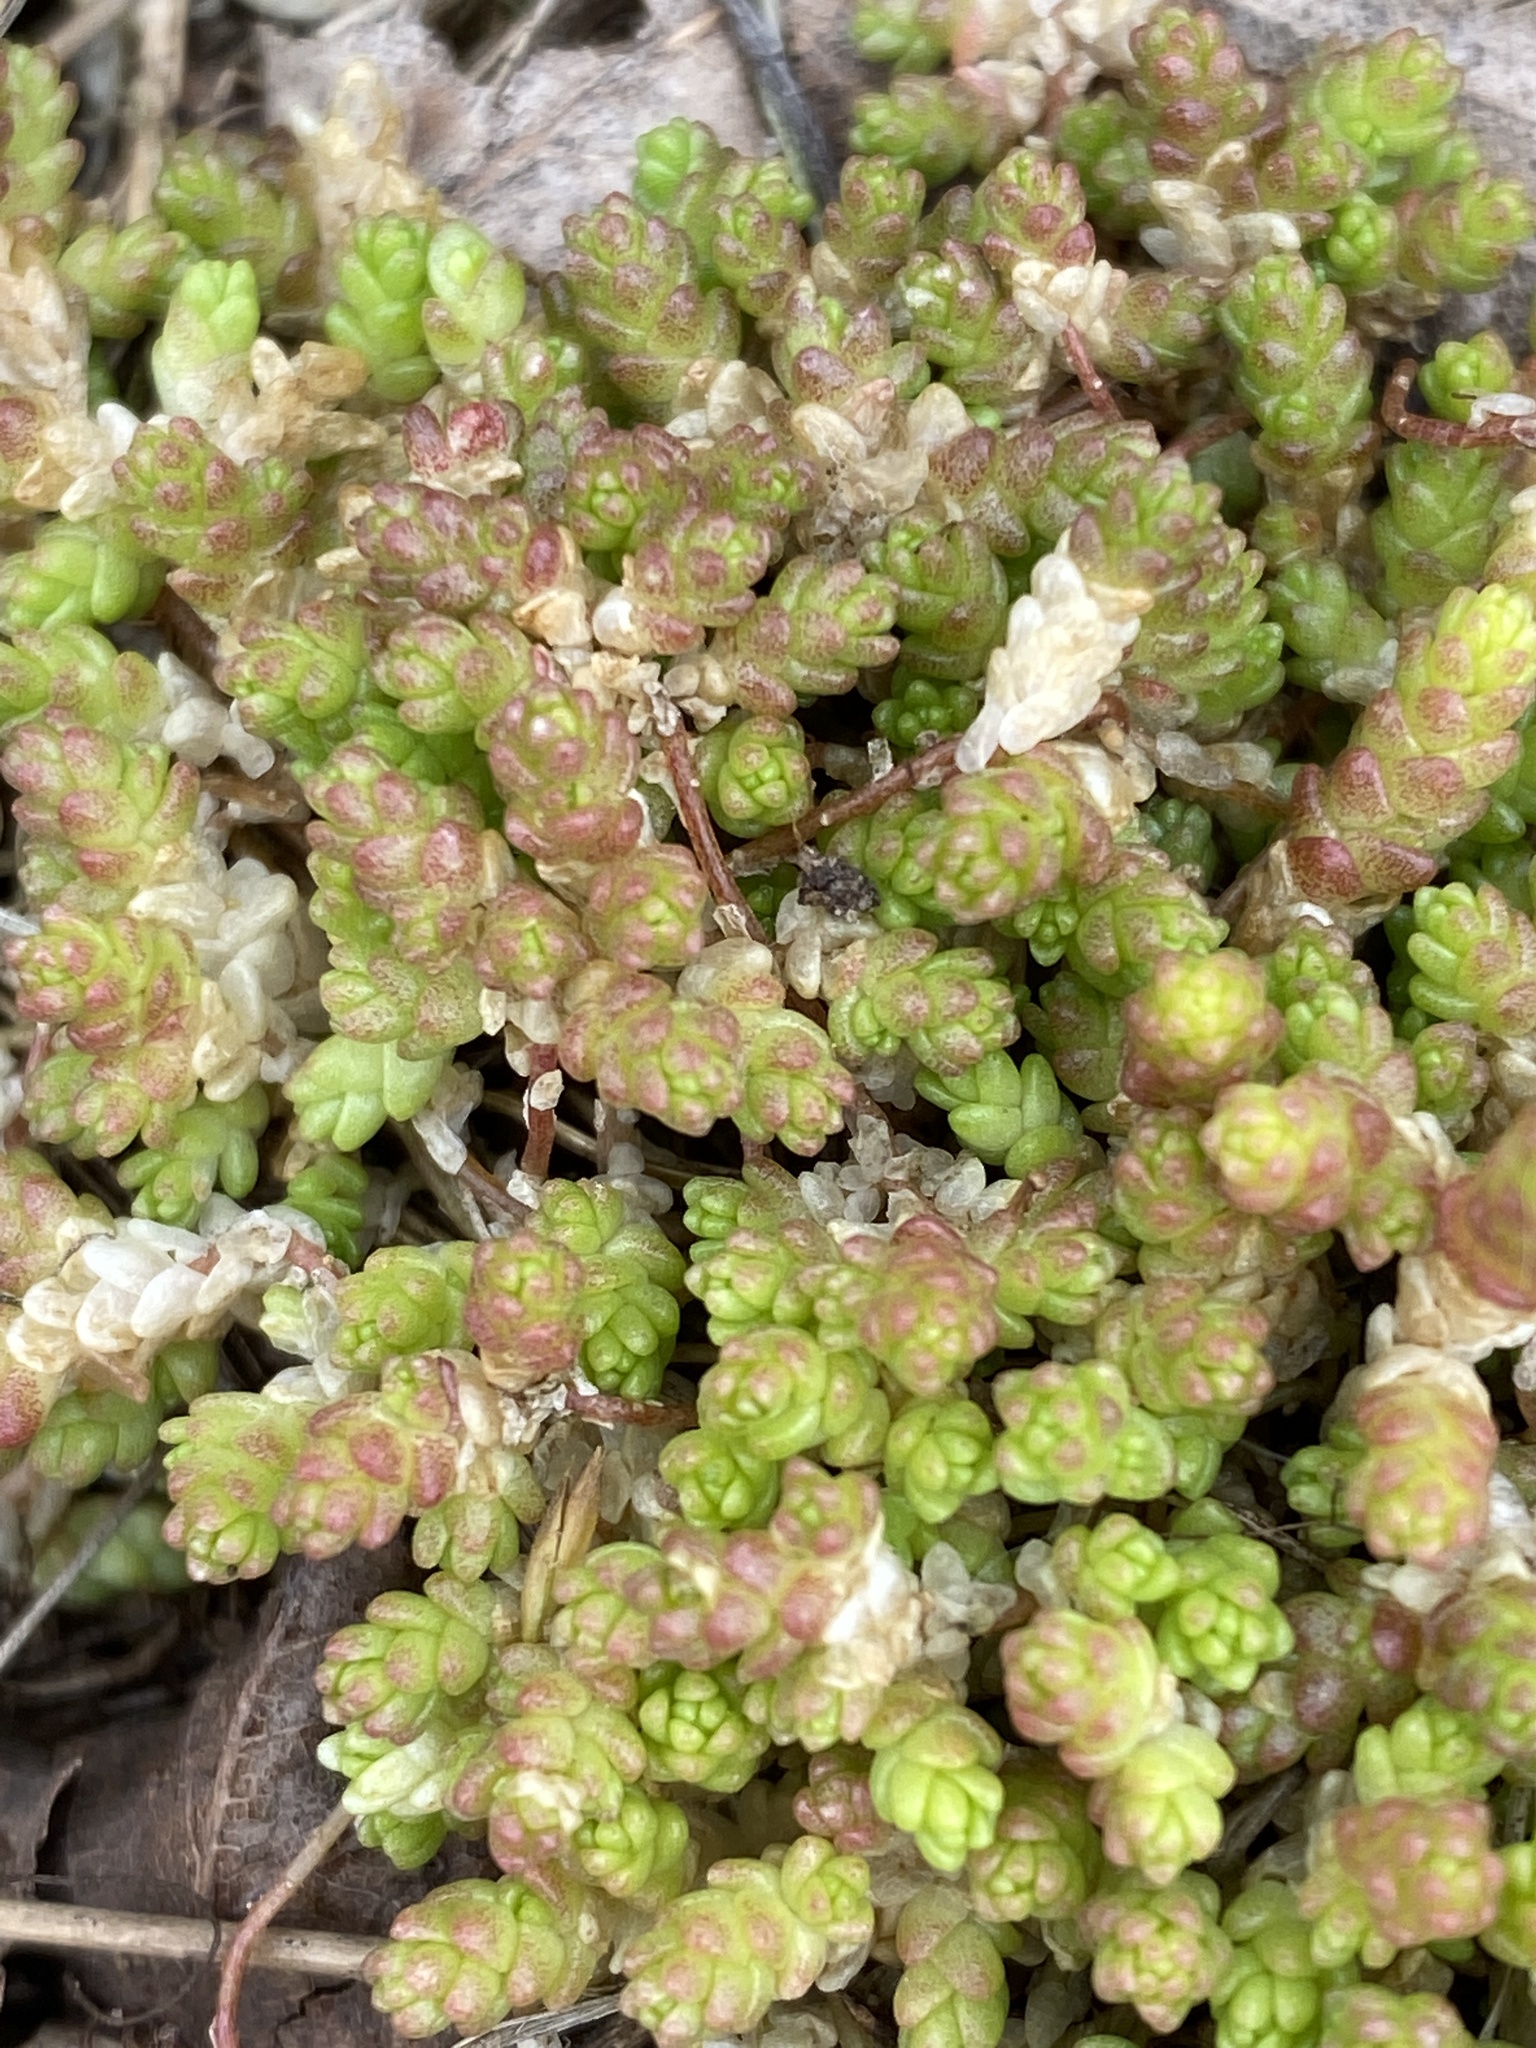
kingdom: Plantae
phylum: Tracheophyta
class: Magnoliopsida
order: Saxifragales
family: Crassulaceae
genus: Sedum
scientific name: Sedum acre
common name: Biting stonecrop
